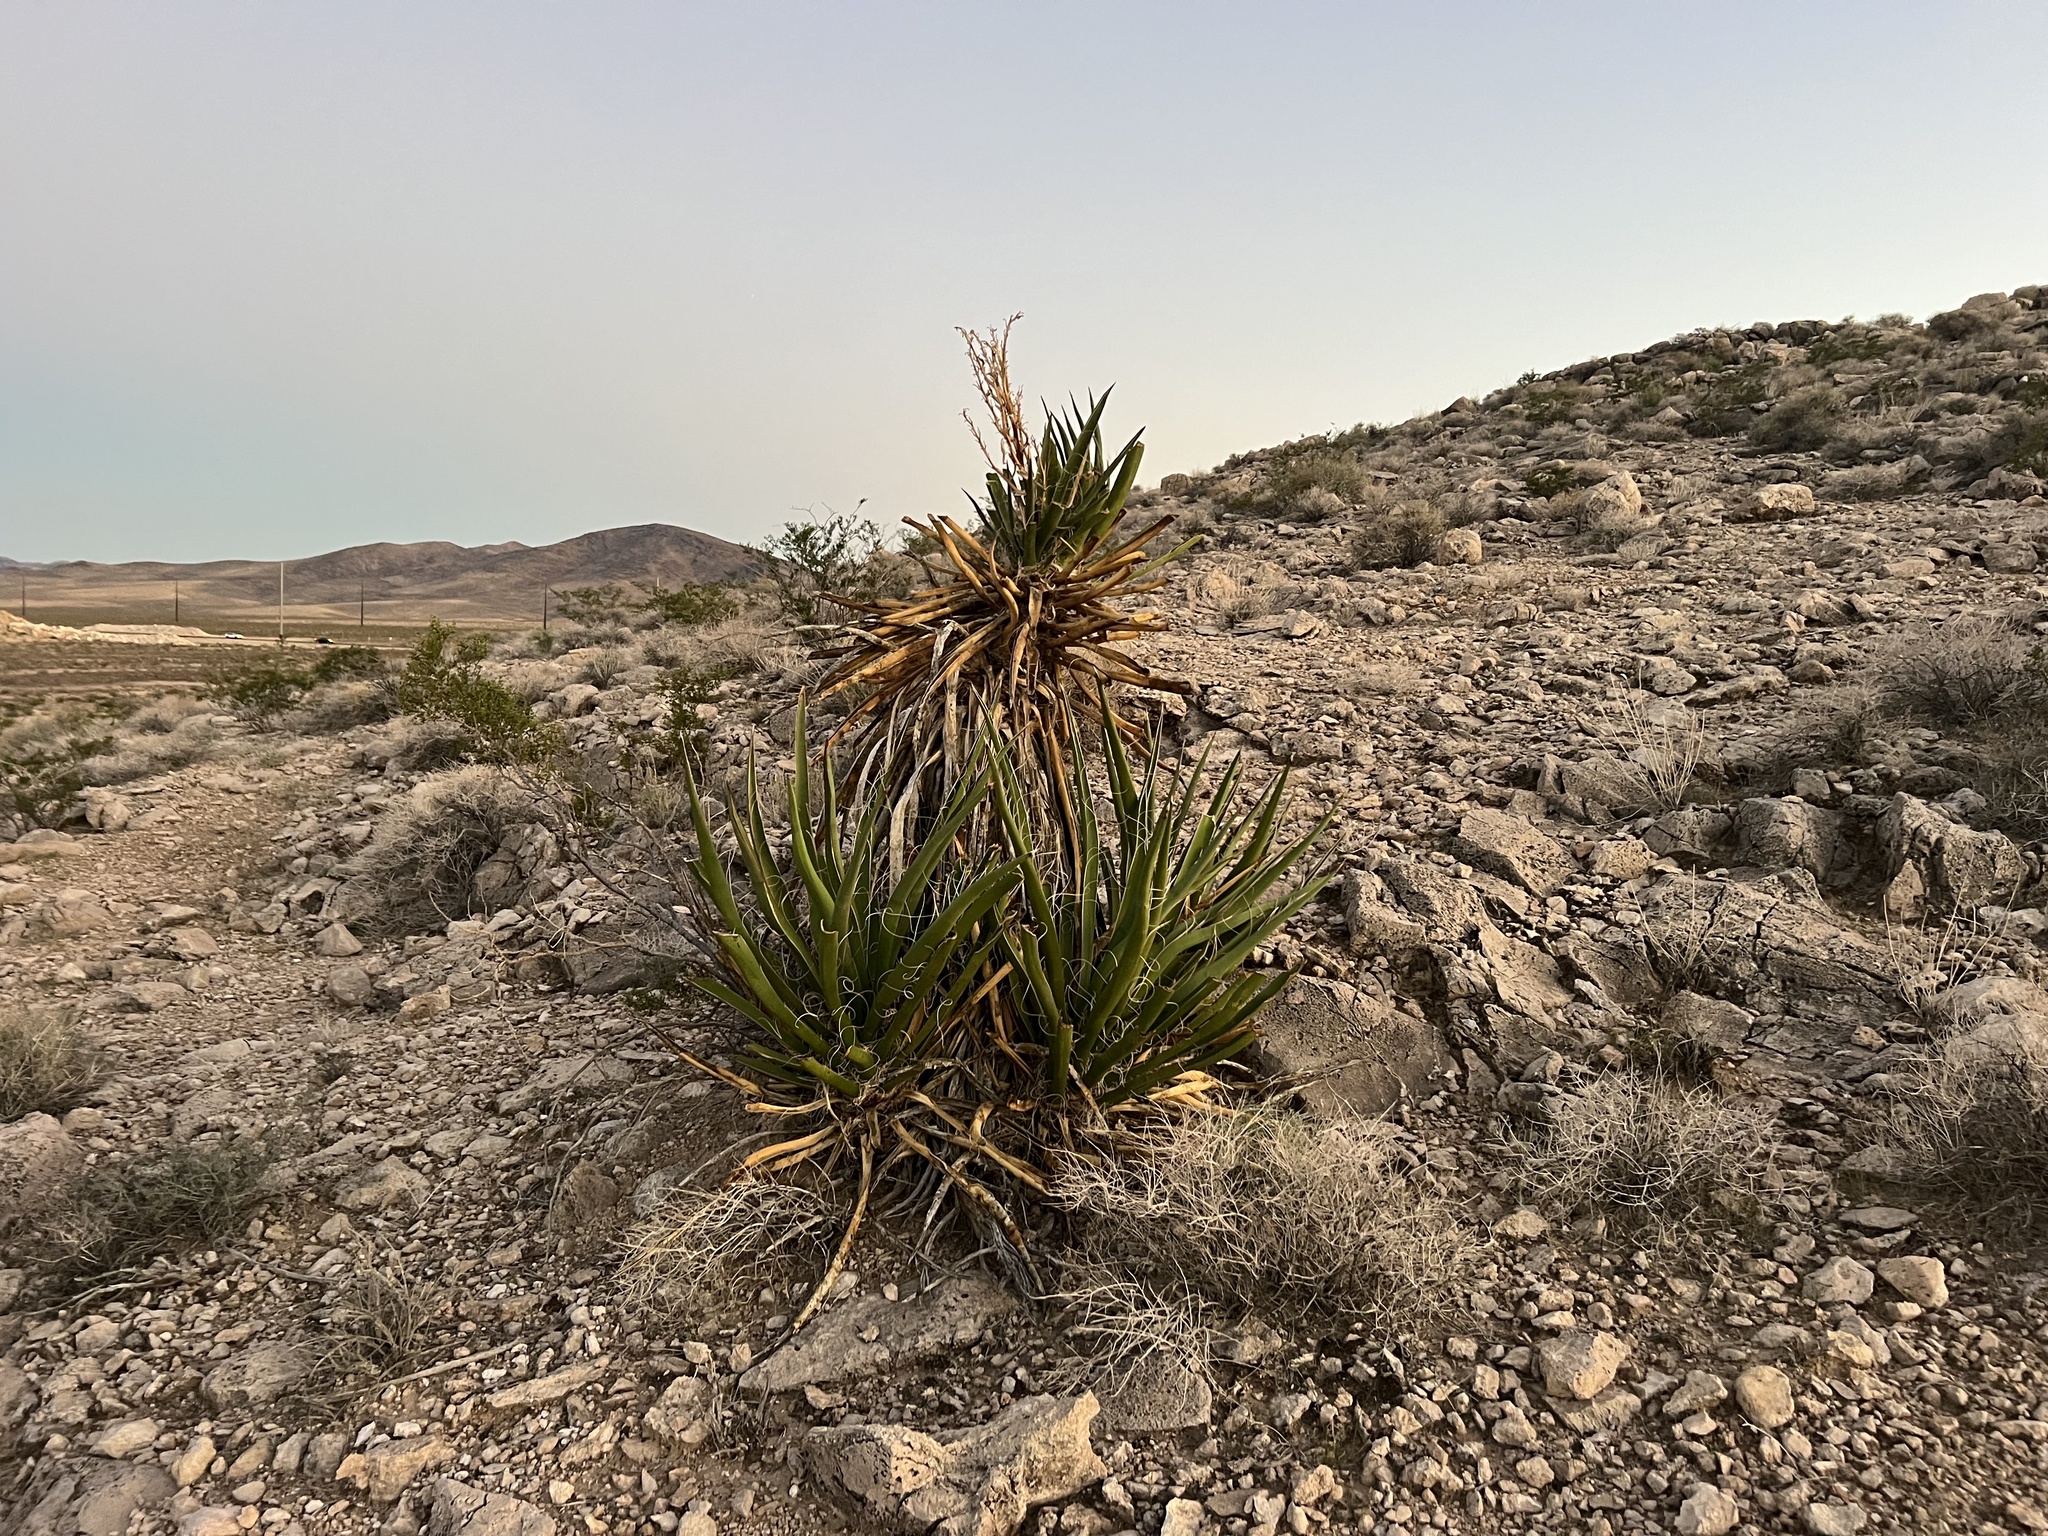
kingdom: Plantae
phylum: Tracheophyta
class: Liliopsida
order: Asparagales
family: Asparagaceae
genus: Yucca
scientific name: Yucca schidigera
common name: Mojave yucca
